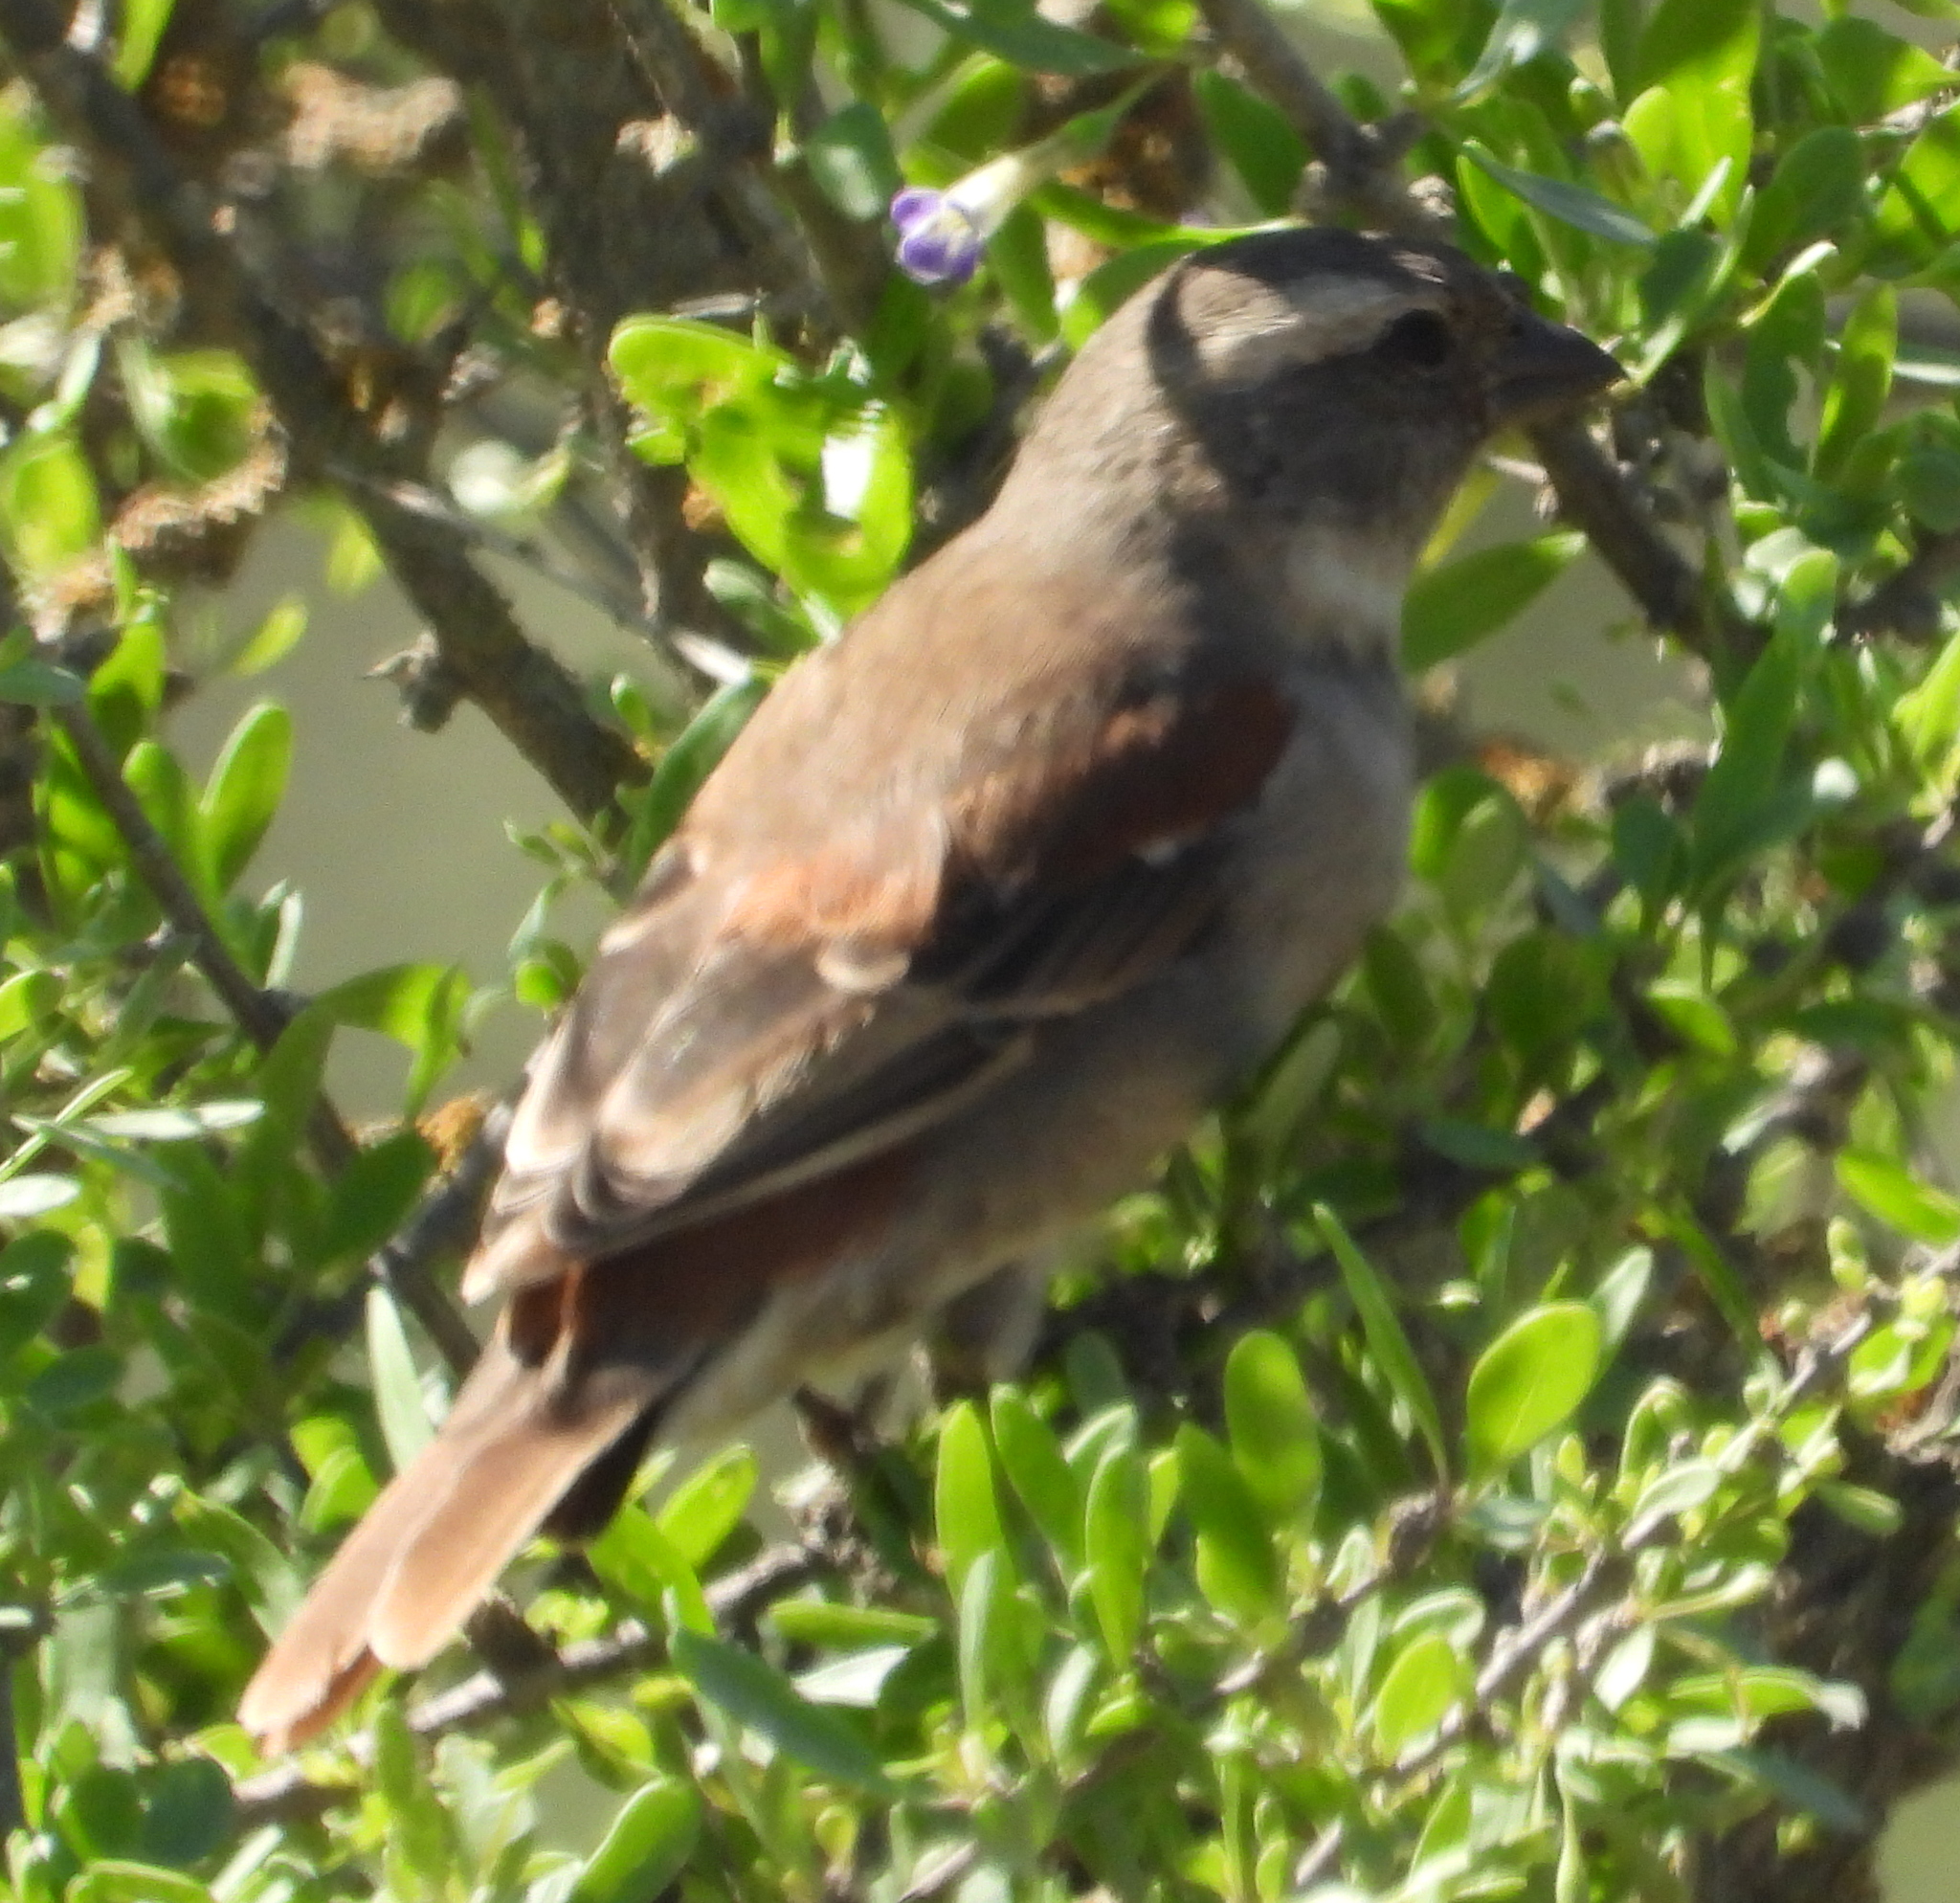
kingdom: Animalia
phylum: Chordata
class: Aves
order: Passeriformes
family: Passeridae
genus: Passer
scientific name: Passer melanurus
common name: Cape sparrow
